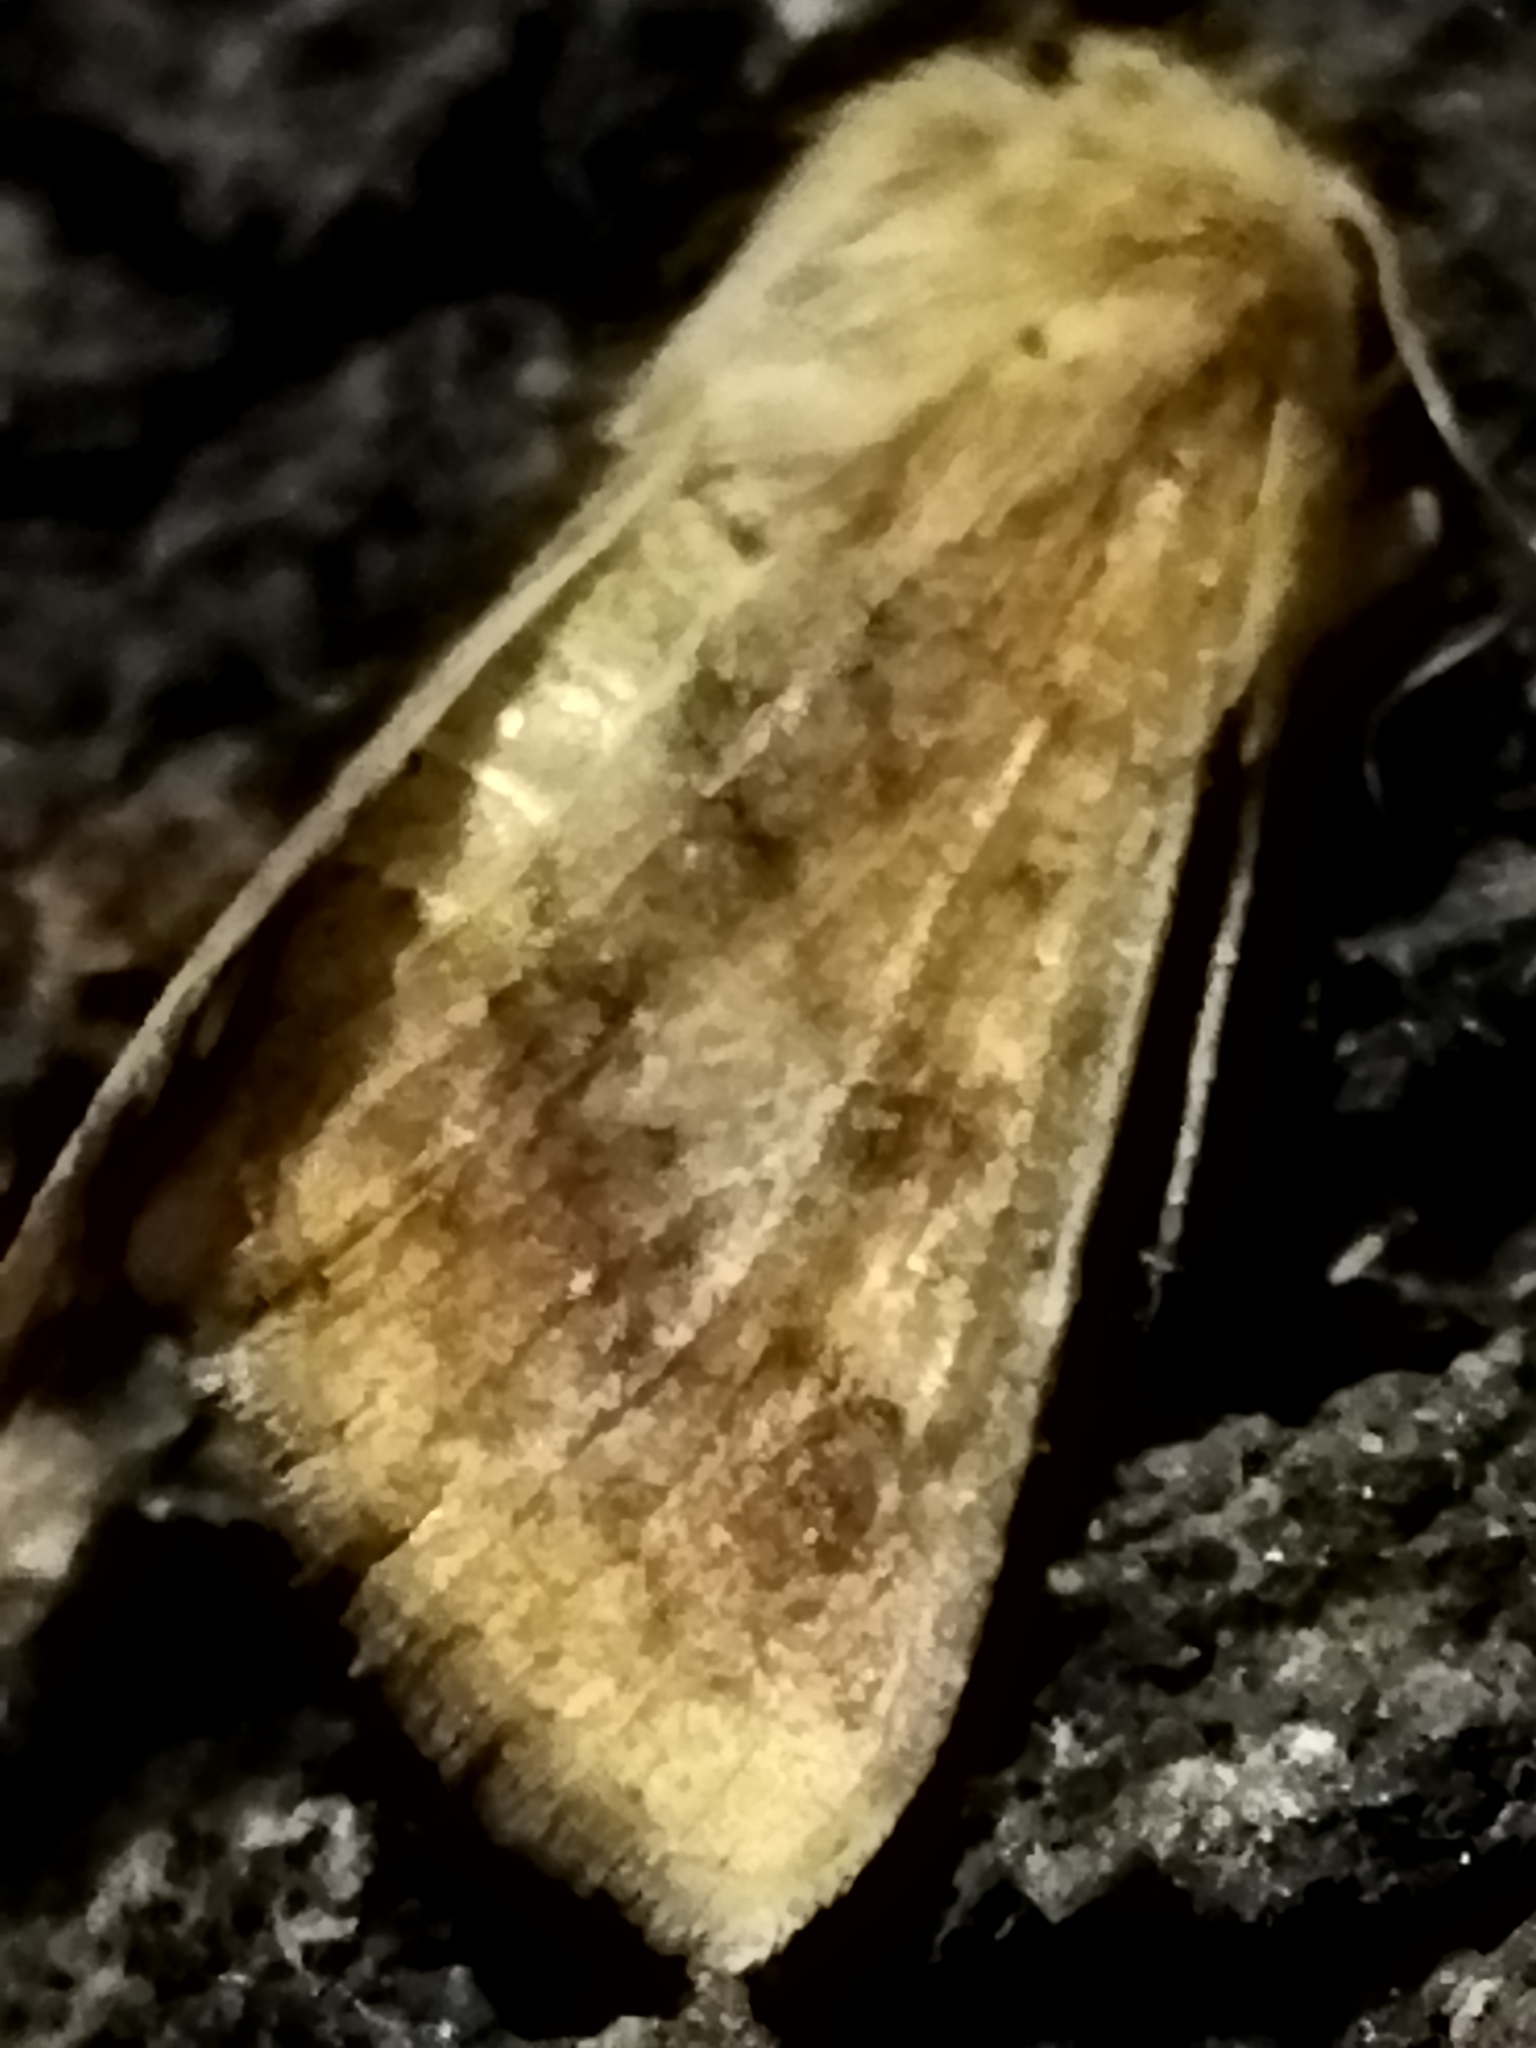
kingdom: Animalia
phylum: Arthropoda
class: Insecta
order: Lepidoptera
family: Noctuidae
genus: Helicoverpa
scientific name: Helicoverpa armigera
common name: Cotton bollworm
